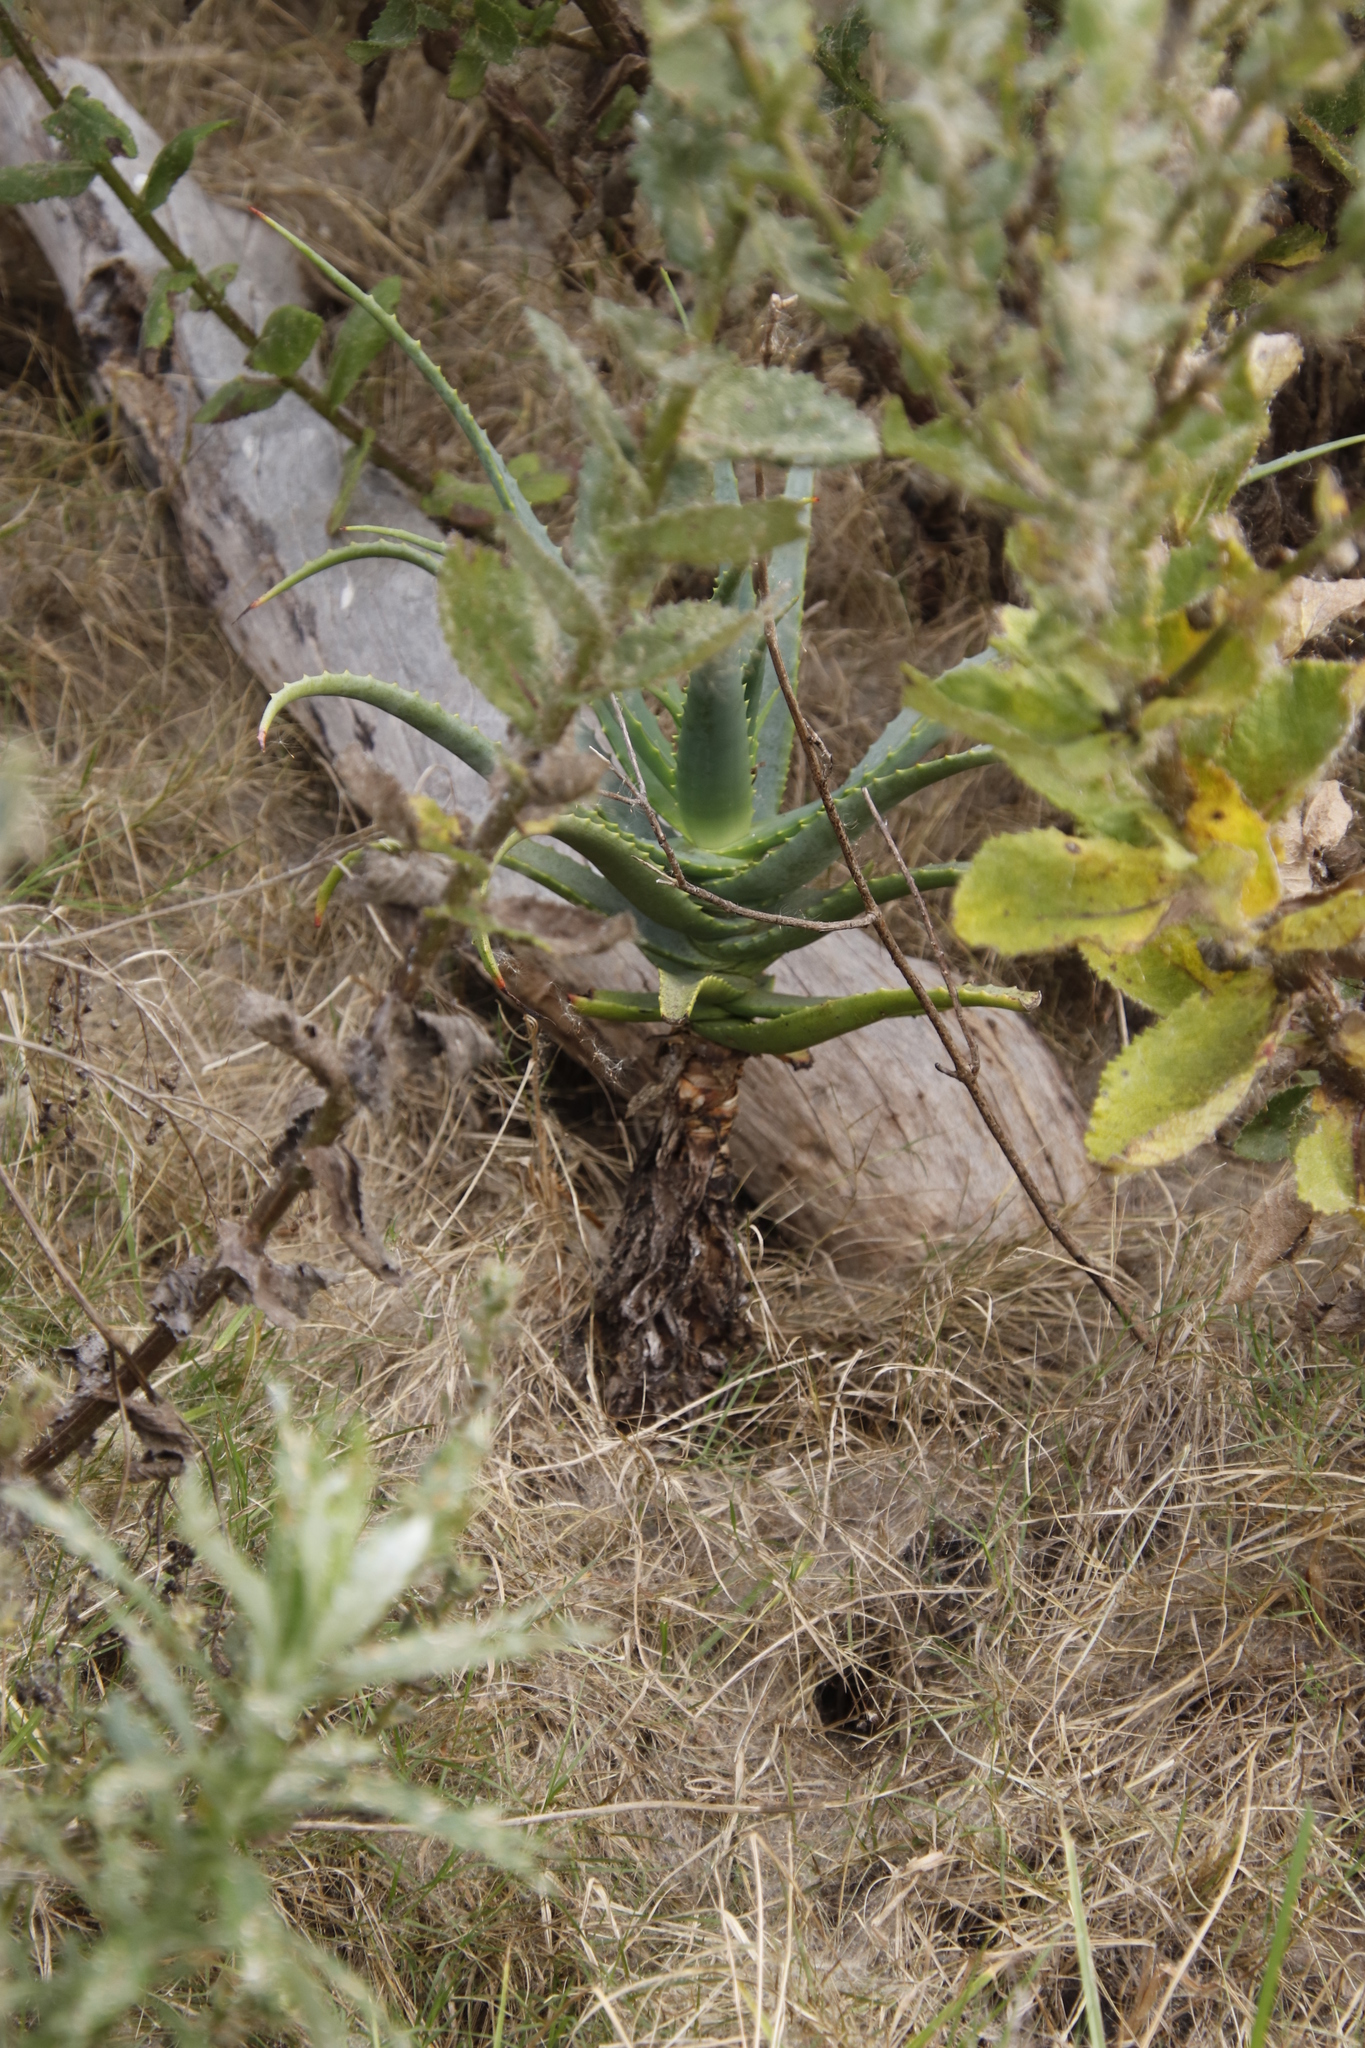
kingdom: Plantae
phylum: Tracheophyta
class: Liliopsida
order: Asparagales
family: Asphodelaceae
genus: Aloe
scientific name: Aloe arborescens
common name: Candelabra aloe
